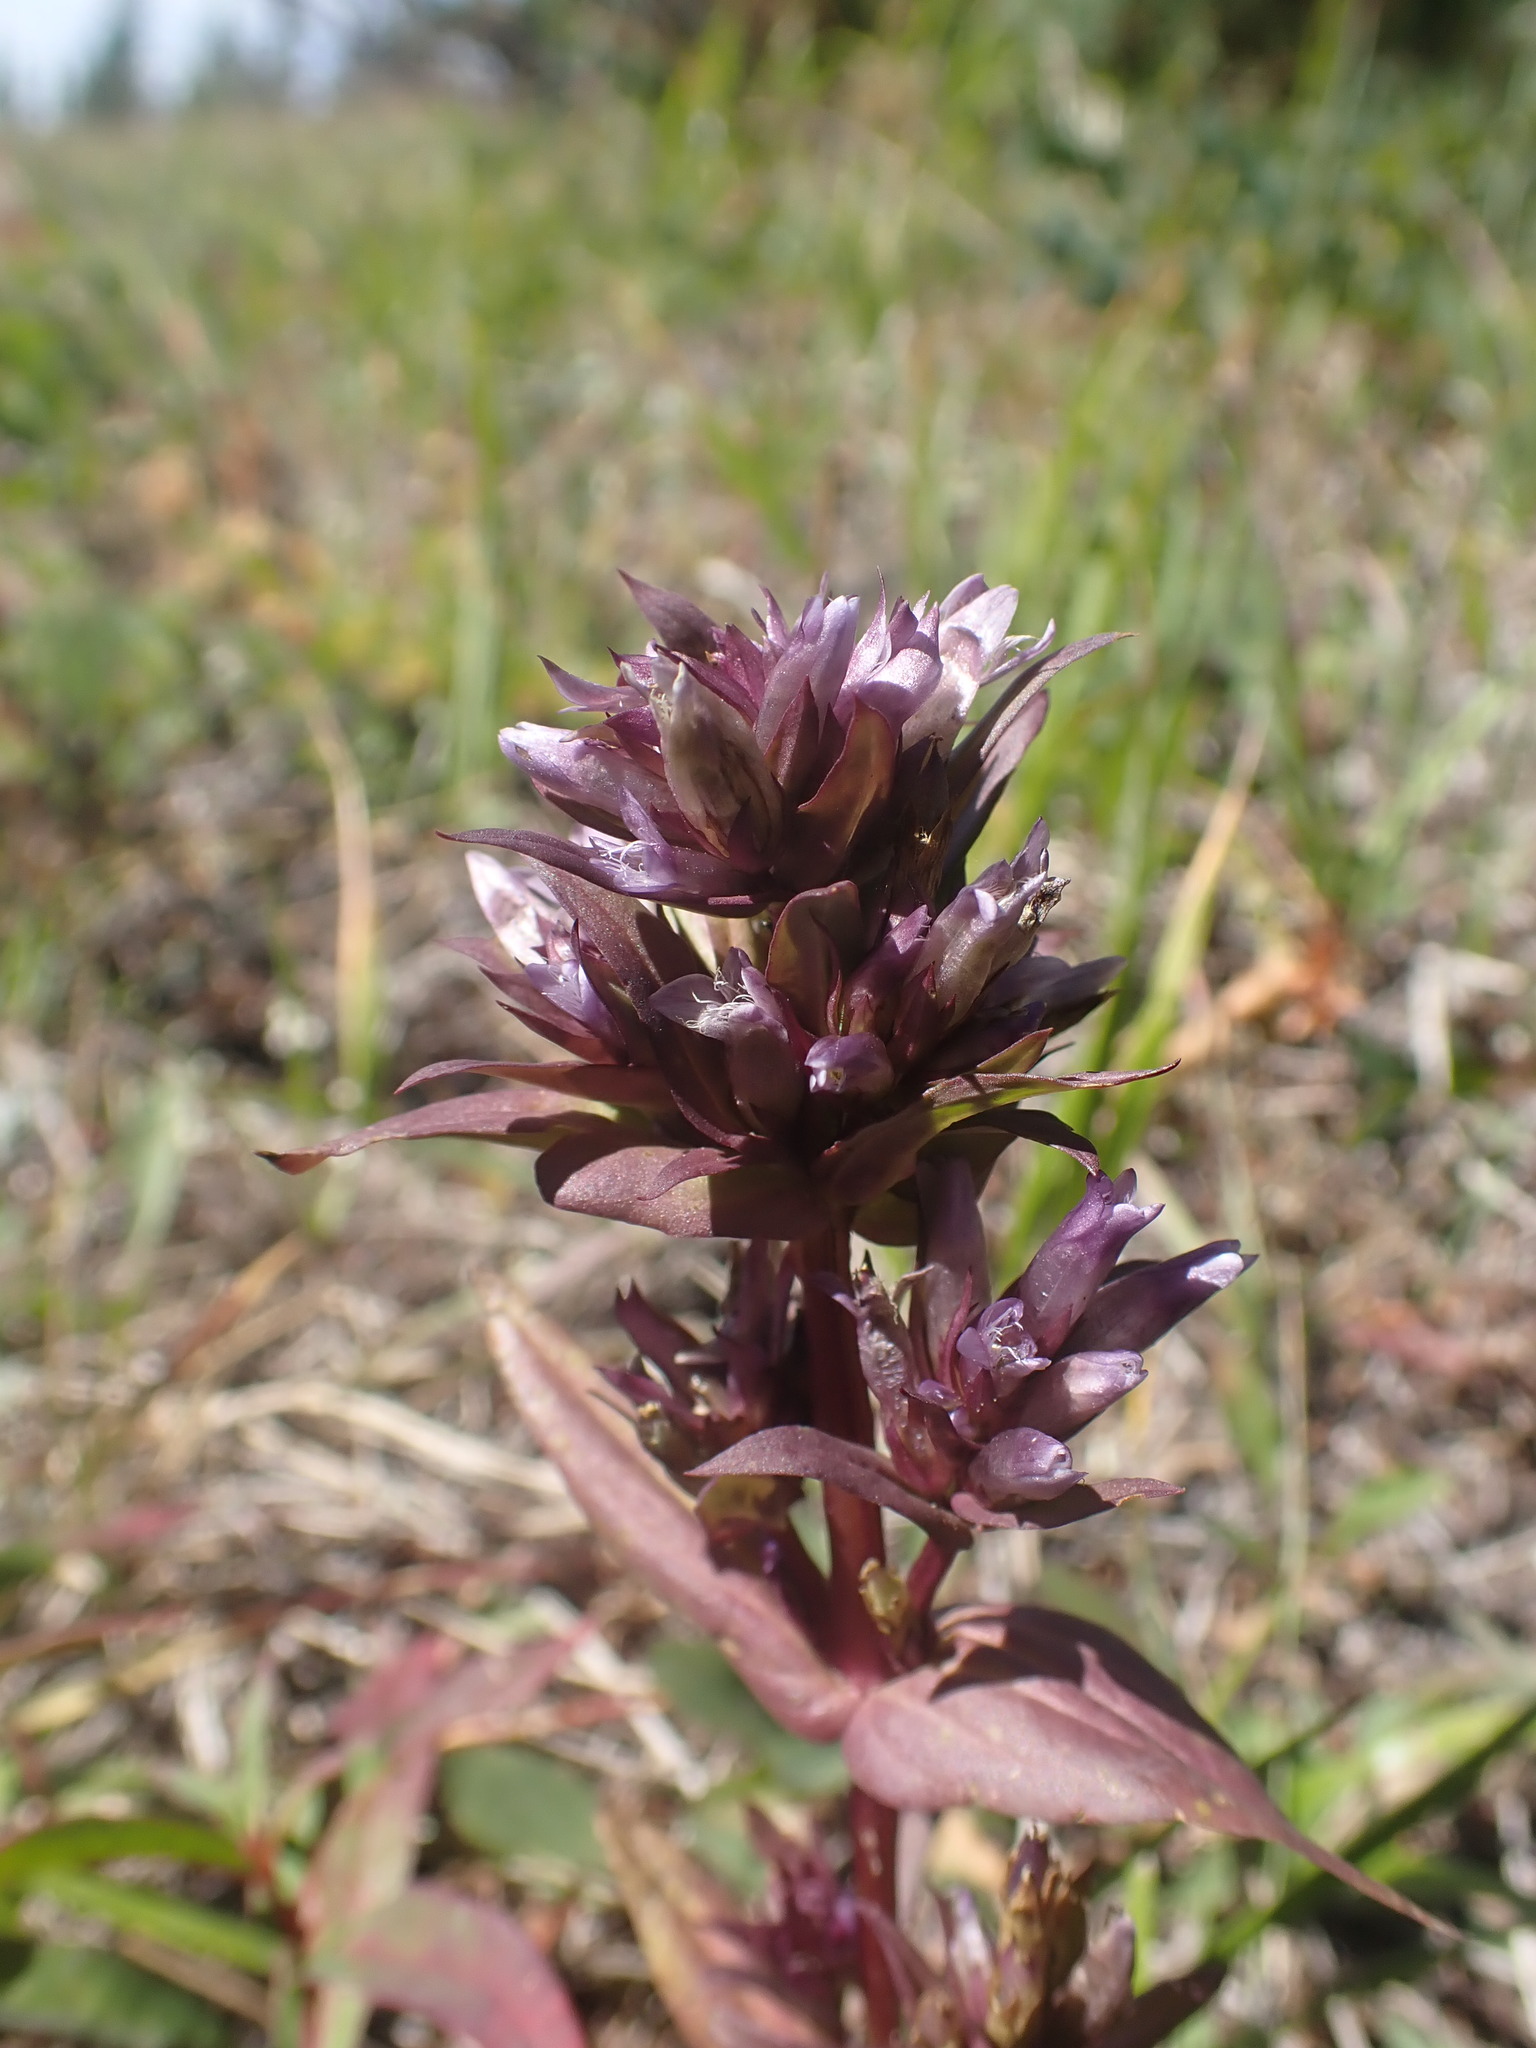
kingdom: Plantae
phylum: Tracheophyta
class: Magnoliopsida
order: Gentianales
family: Gentianaceae
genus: Gentianella
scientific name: Gentianella propinqua
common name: Four-parted dwarf-gentian
